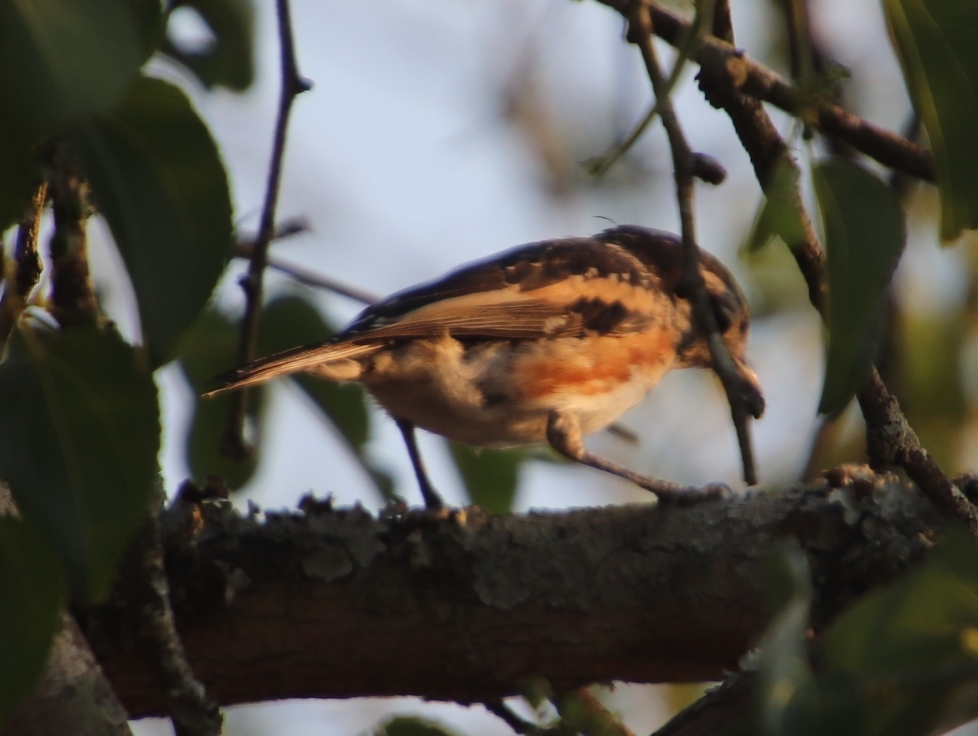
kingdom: Animalia
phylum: Chordata
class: Aves
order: Passeriformes
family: Malaconotidae
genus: Nilaus
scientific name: Nilaus afer
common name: Brubru
